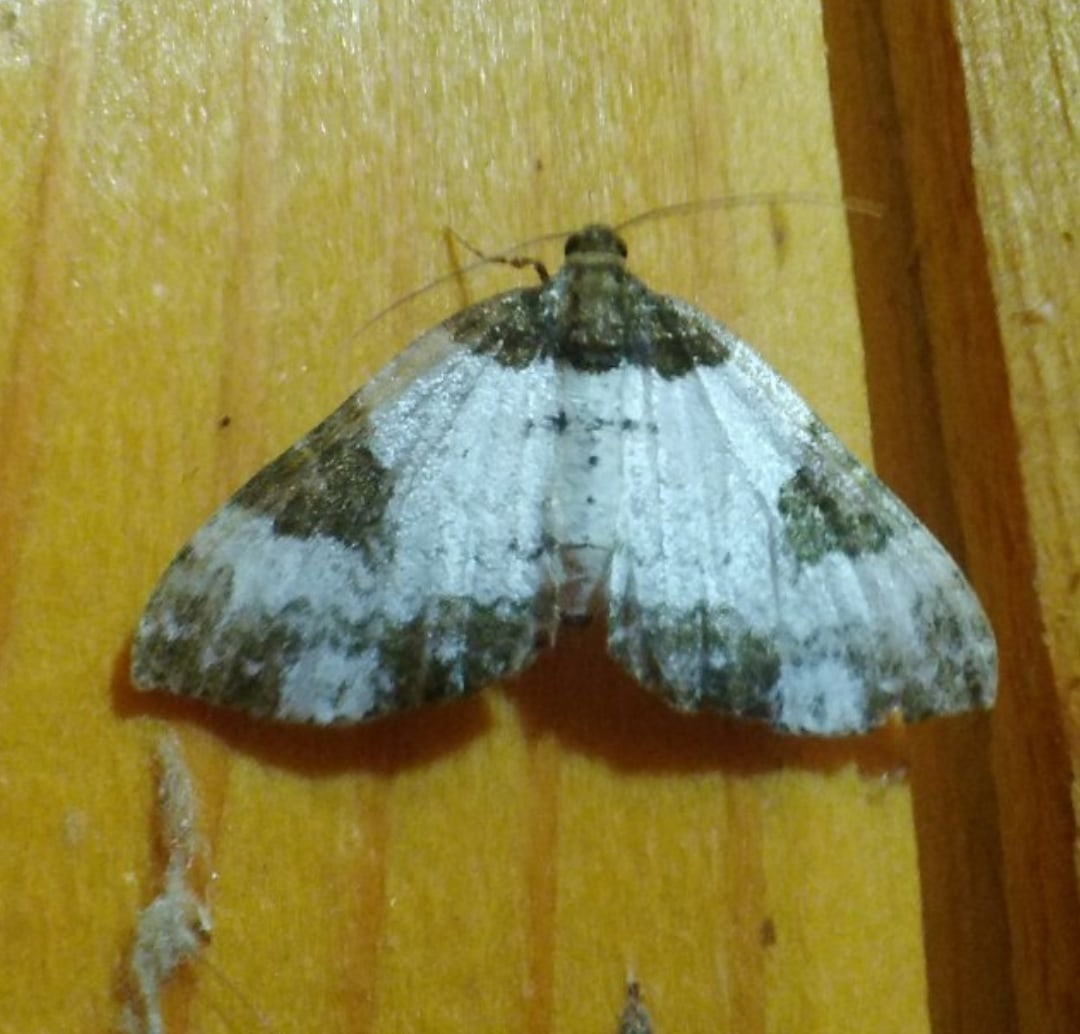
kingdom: Animalia
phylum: Arthropoda
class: Insecta
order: Lepidoptera
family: Geometridae
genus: Melanthia
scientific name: Melanthia procellata
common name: Pretty chalk carpet
